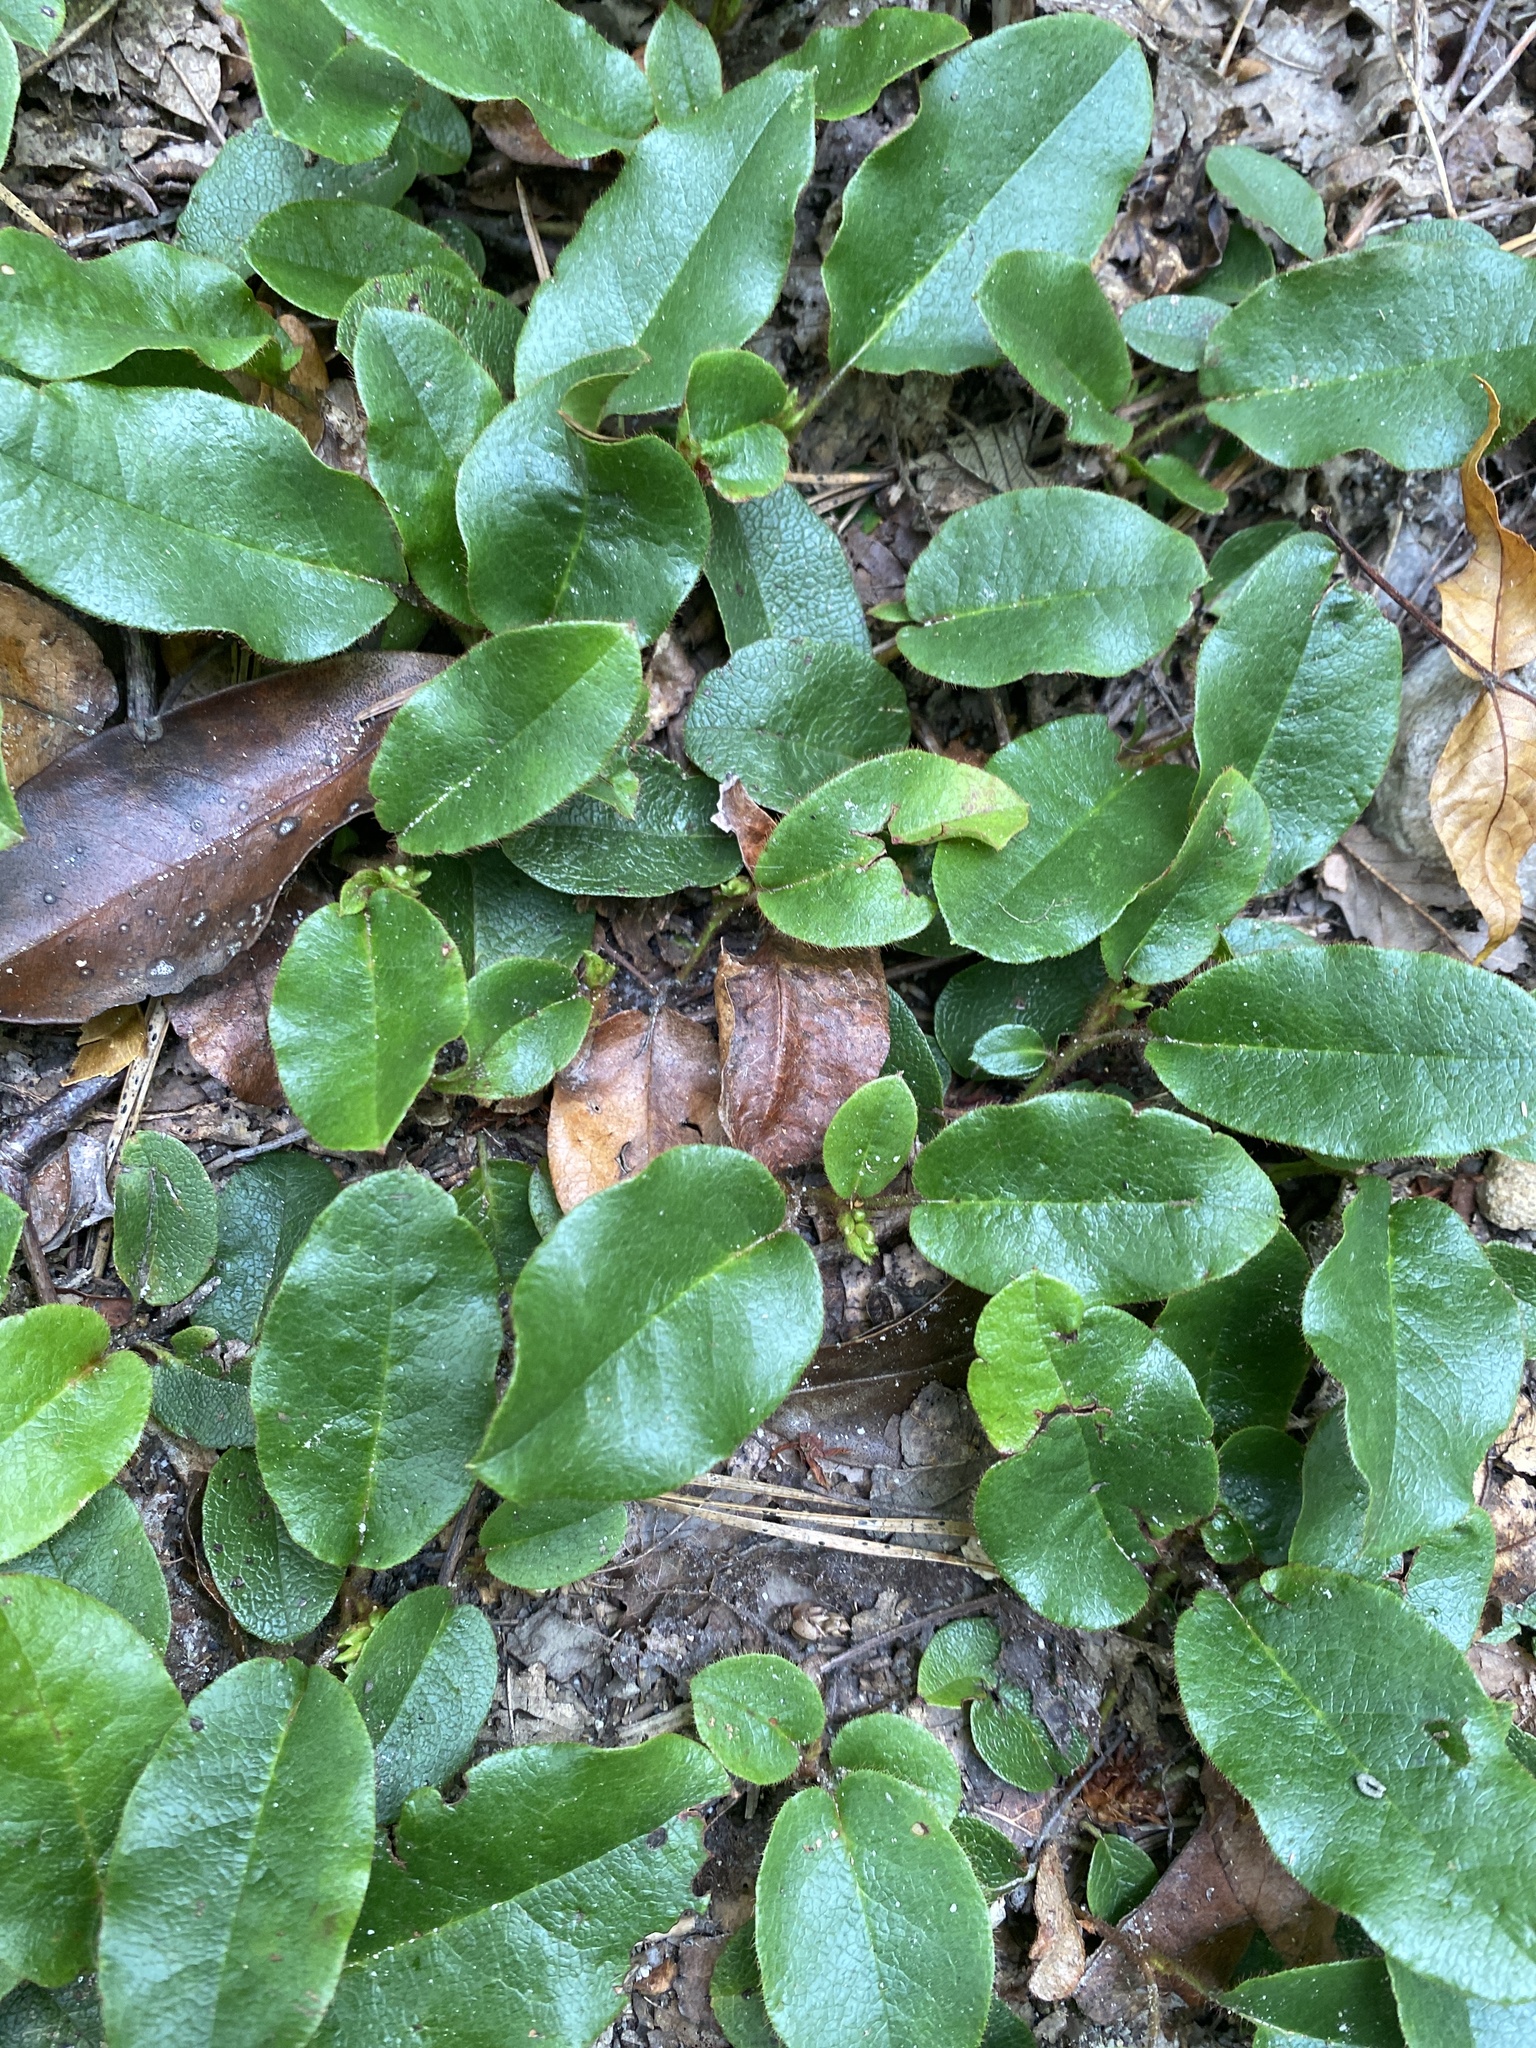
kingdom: Plantae
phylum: Tracheophyta
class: Magnoliopsida
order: Ericales
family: Ericaceae
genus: Epigaea
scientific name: Epigaea repens
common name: Gravelroot
